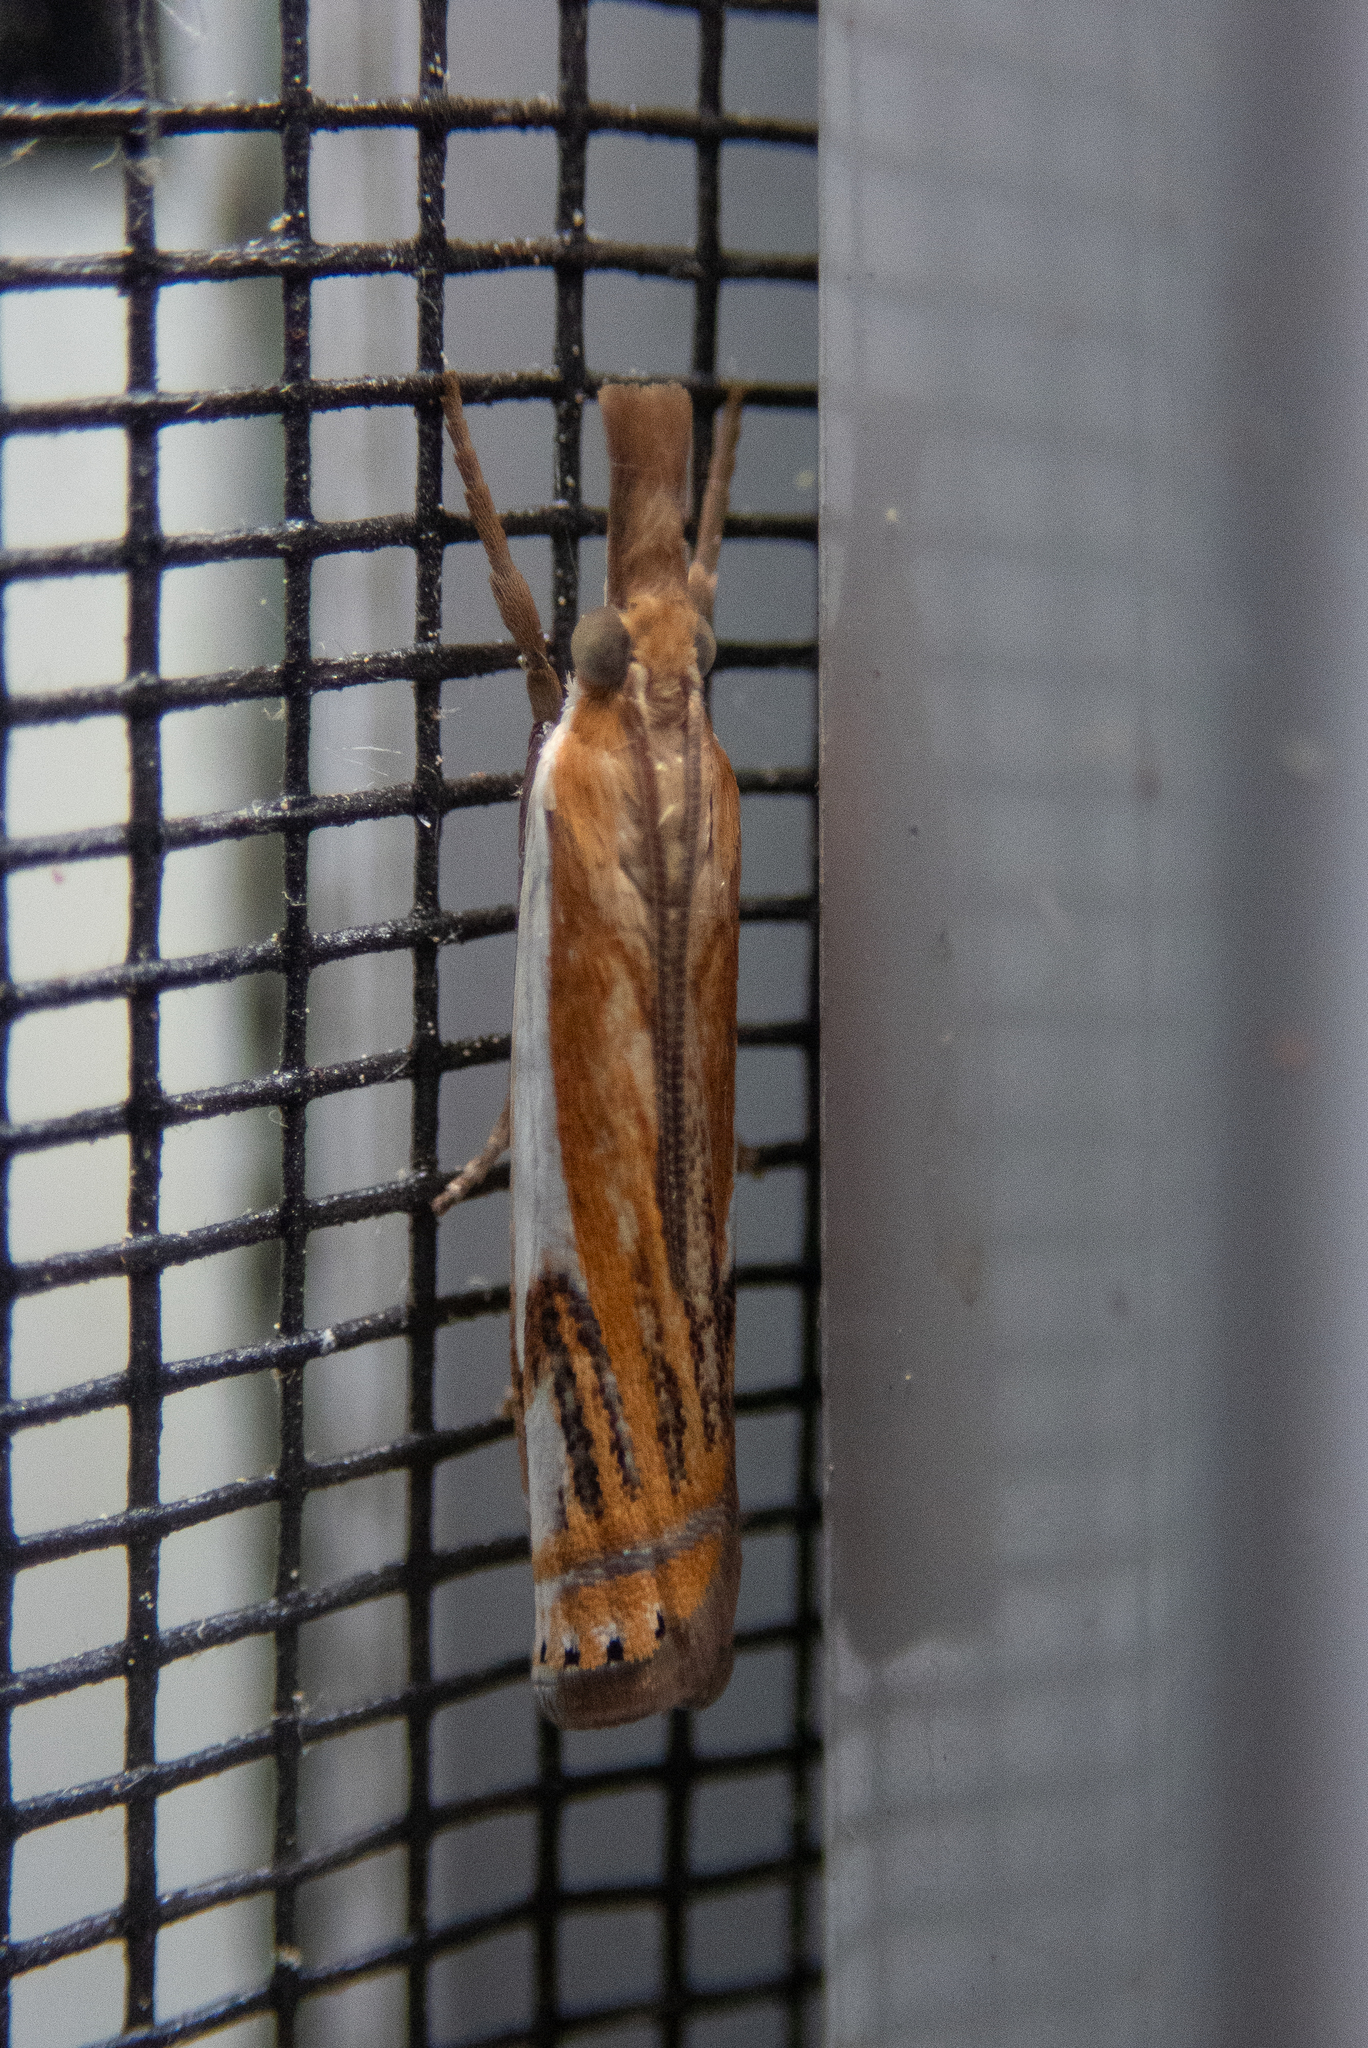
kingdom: Animalia
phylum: Arthropoda
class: Insecta
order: Lepidoptera
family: Crambidae
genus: Crambus
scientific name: Crambus agitatellus
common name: Double-banded grass-veneer
